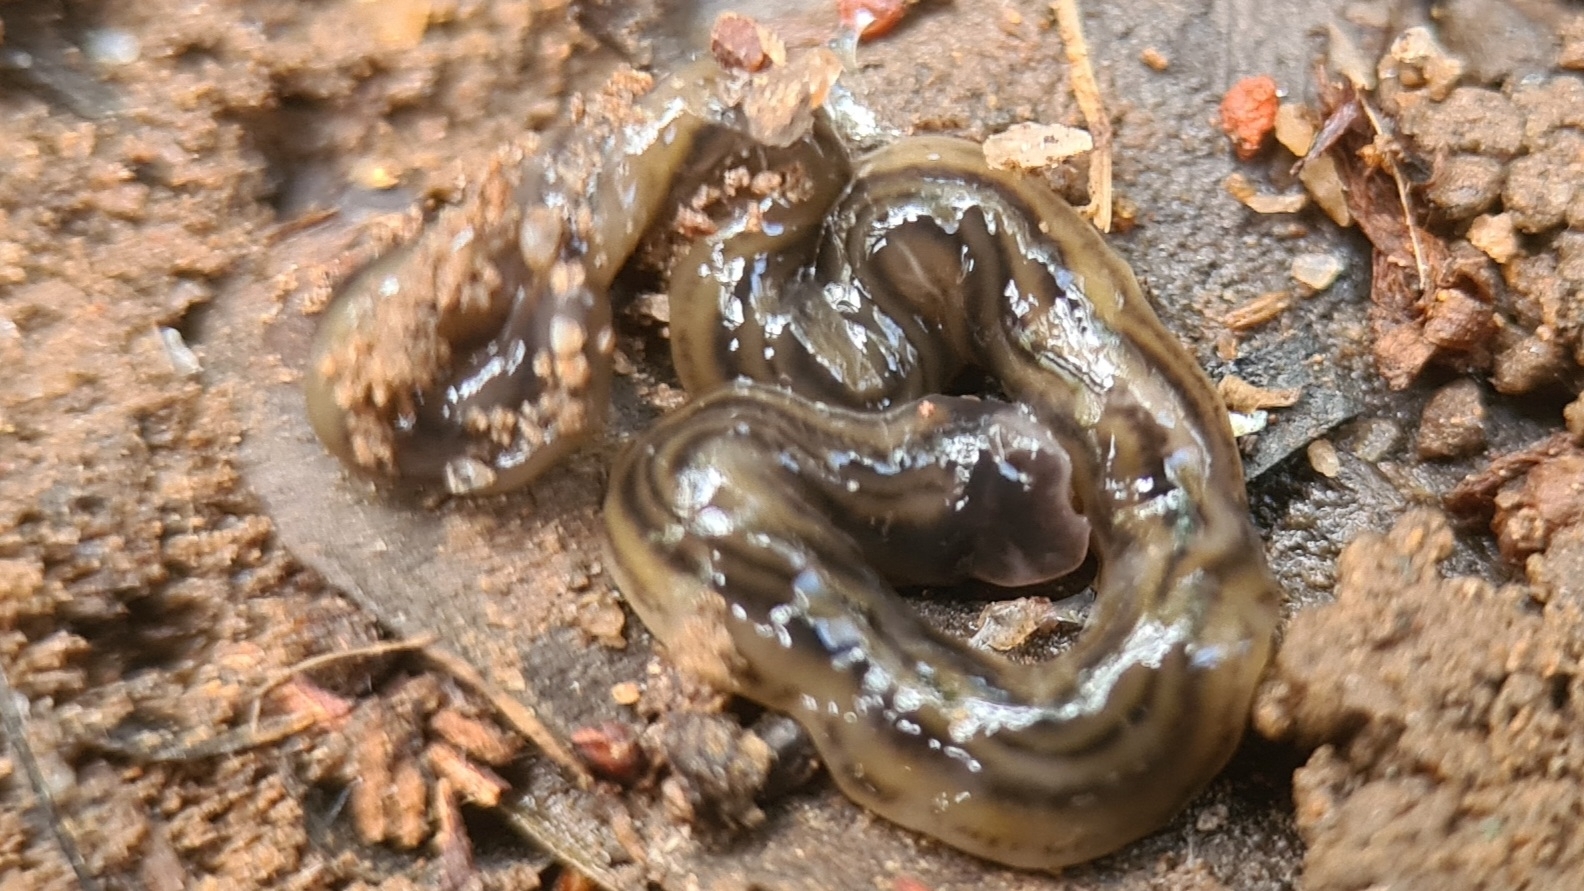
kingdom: Animalia
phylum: Platyhelminthes
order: Tricladida
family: Geoplanidae
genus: Bipalium
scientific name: Bipalium kewense
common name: Hammerhead flatworm
